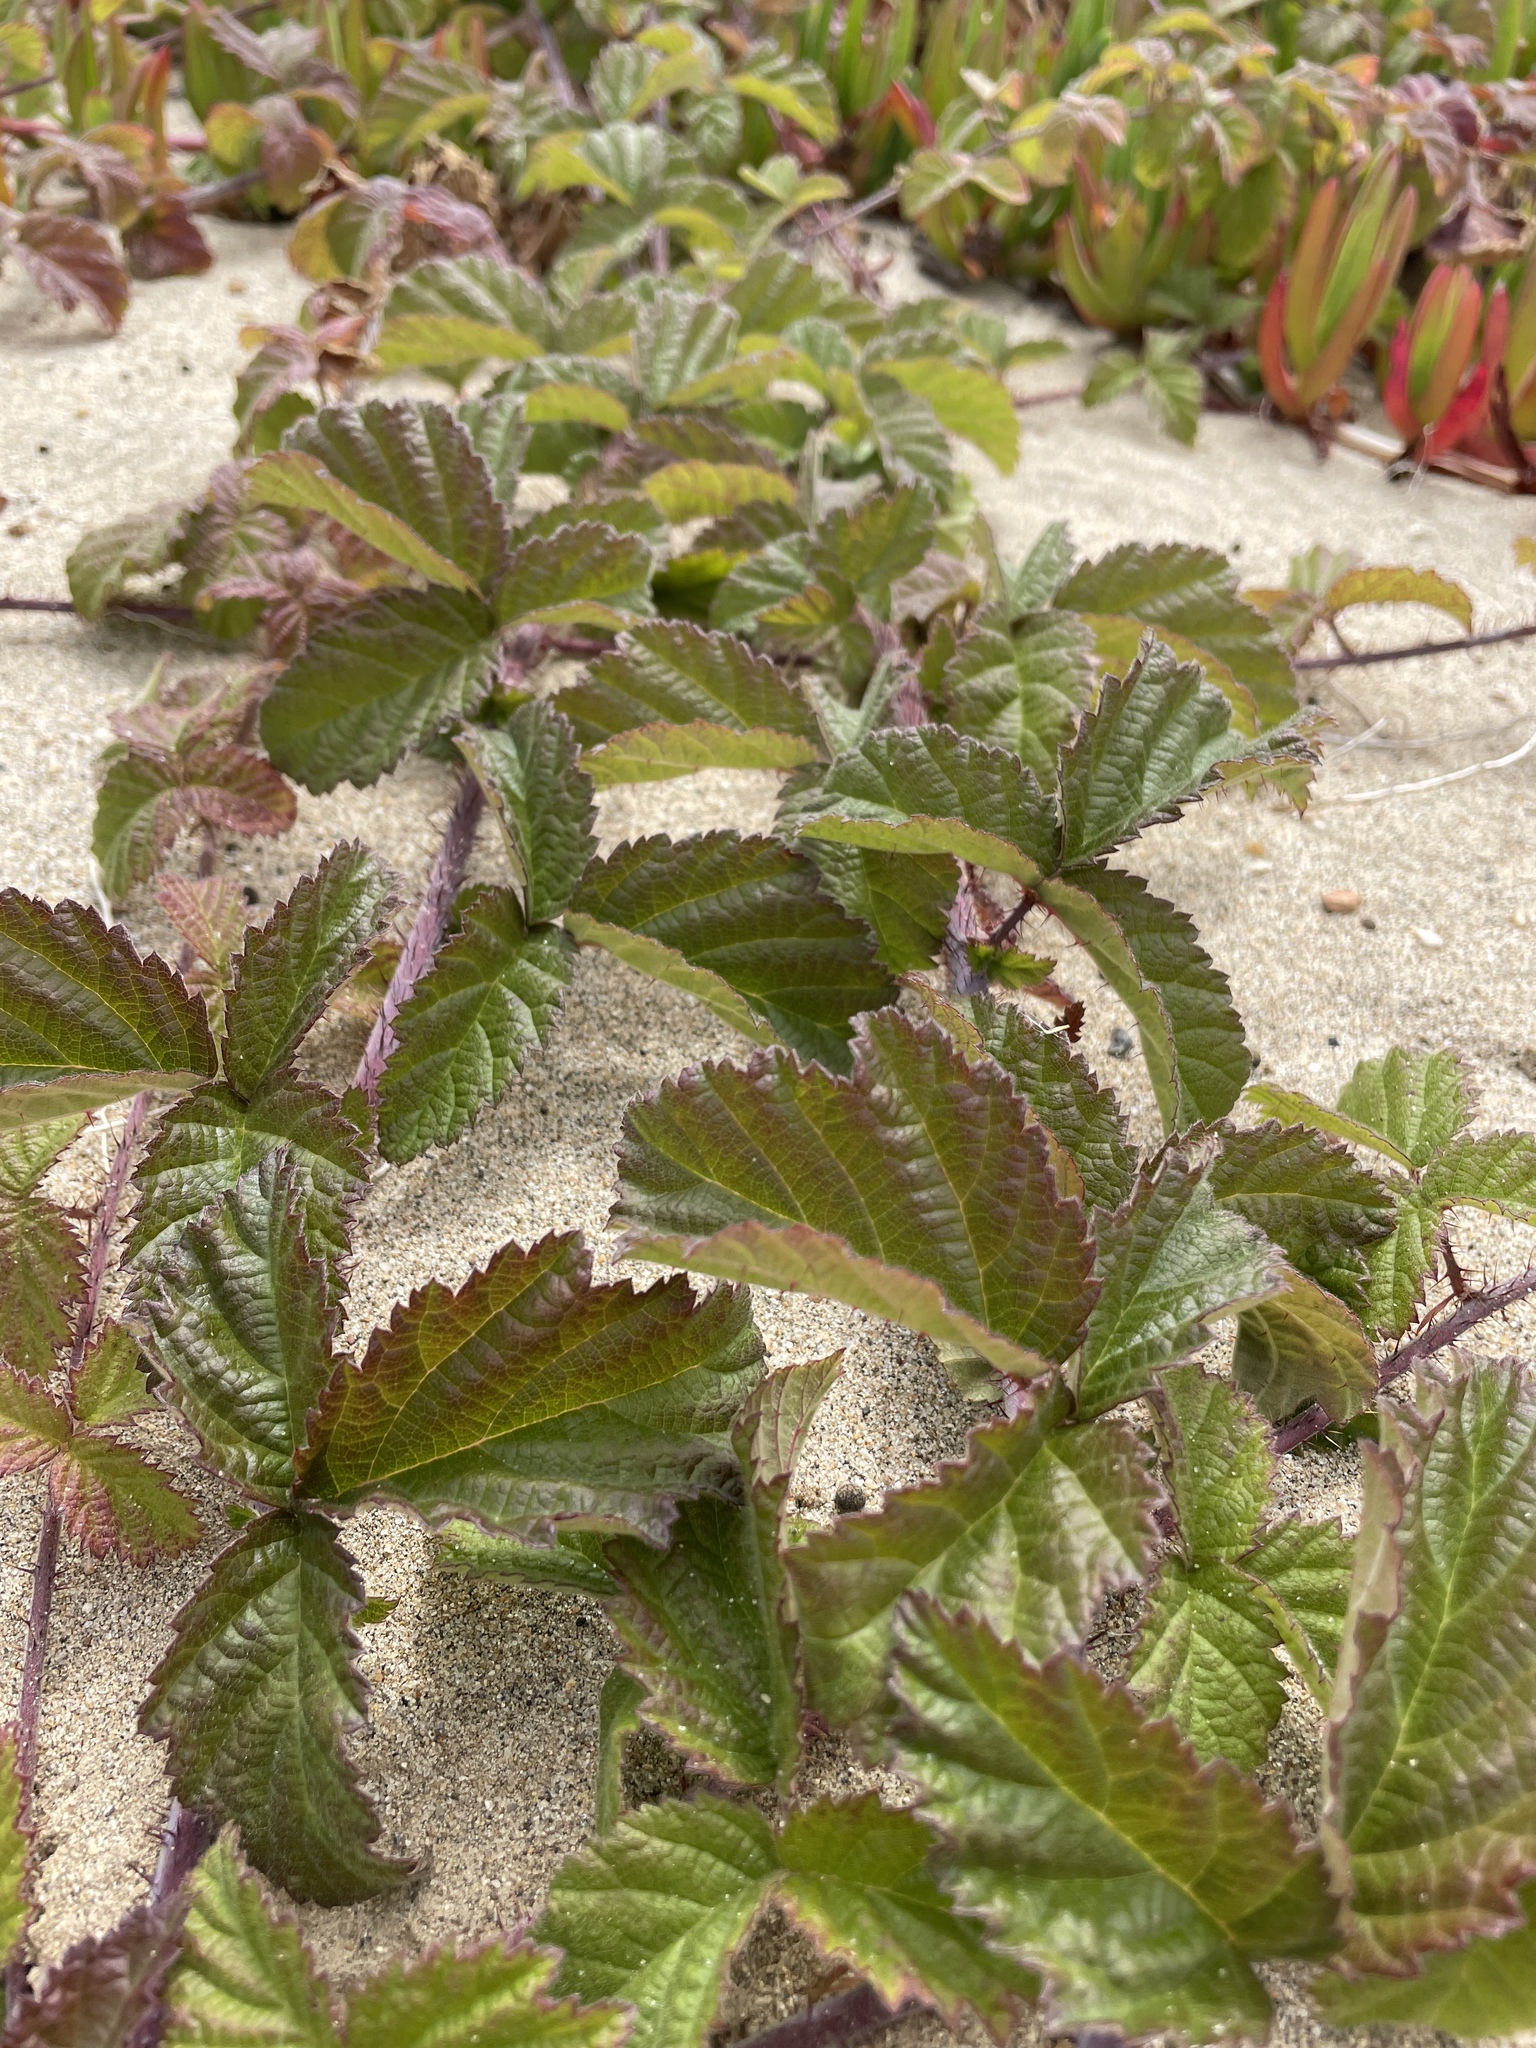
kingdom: Plantae
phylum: Tracheophyta
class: Magnoliopsida
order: Rosales
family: Rosaceae
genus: Rubus
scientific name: Rubus ursinus
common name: Pacific blackberry
